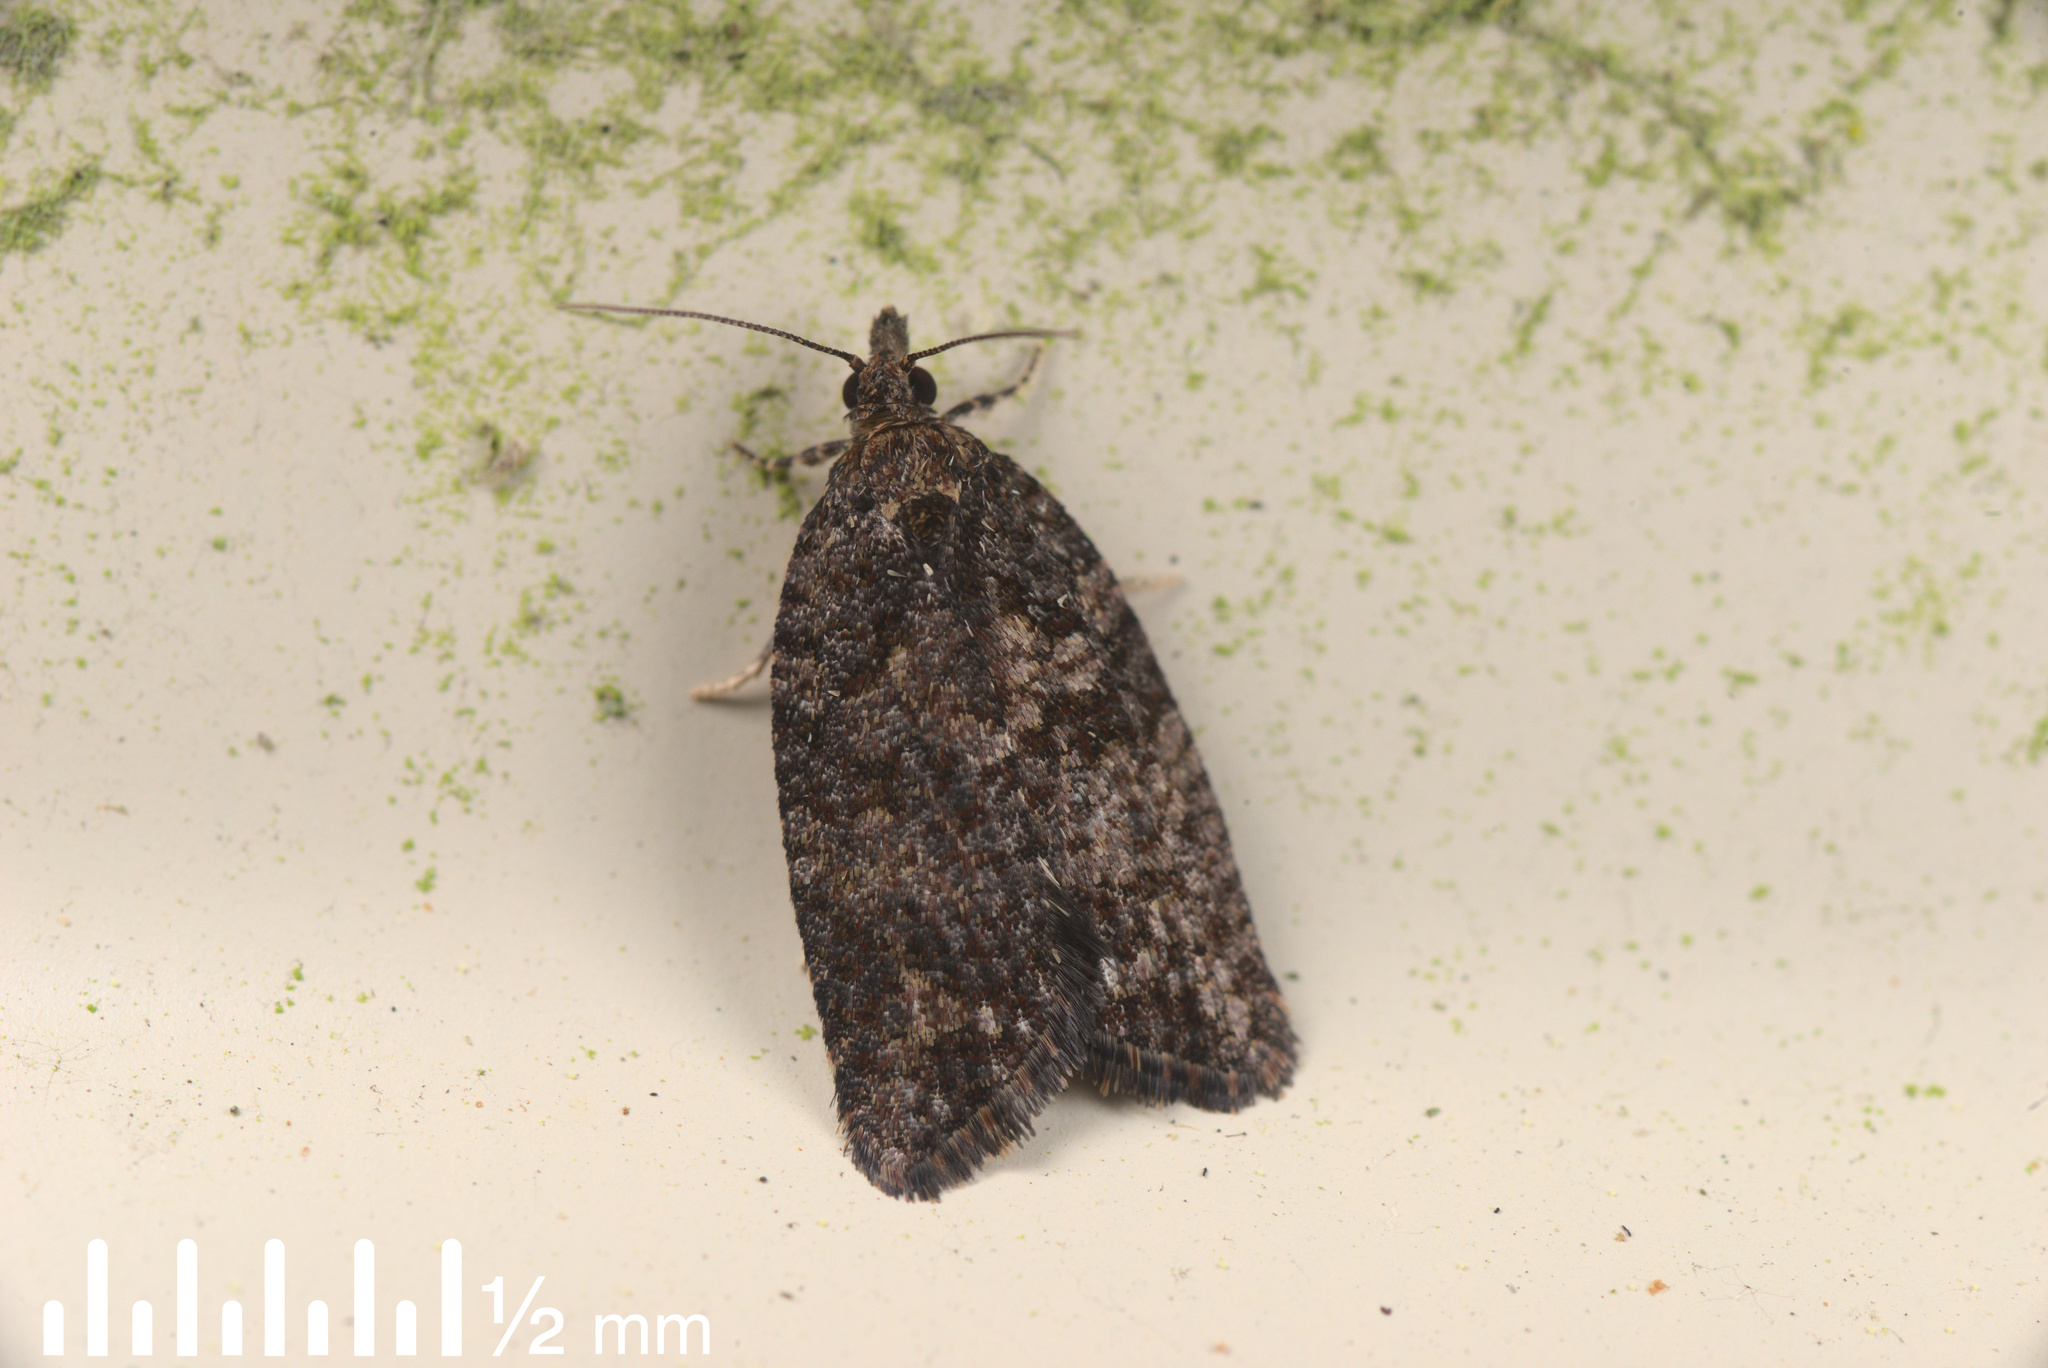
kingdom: Animalia
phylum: Arthropoda
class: Insecta
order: Lepidoptera
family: Tortricidae
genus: Capua
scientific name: Capua intractana
